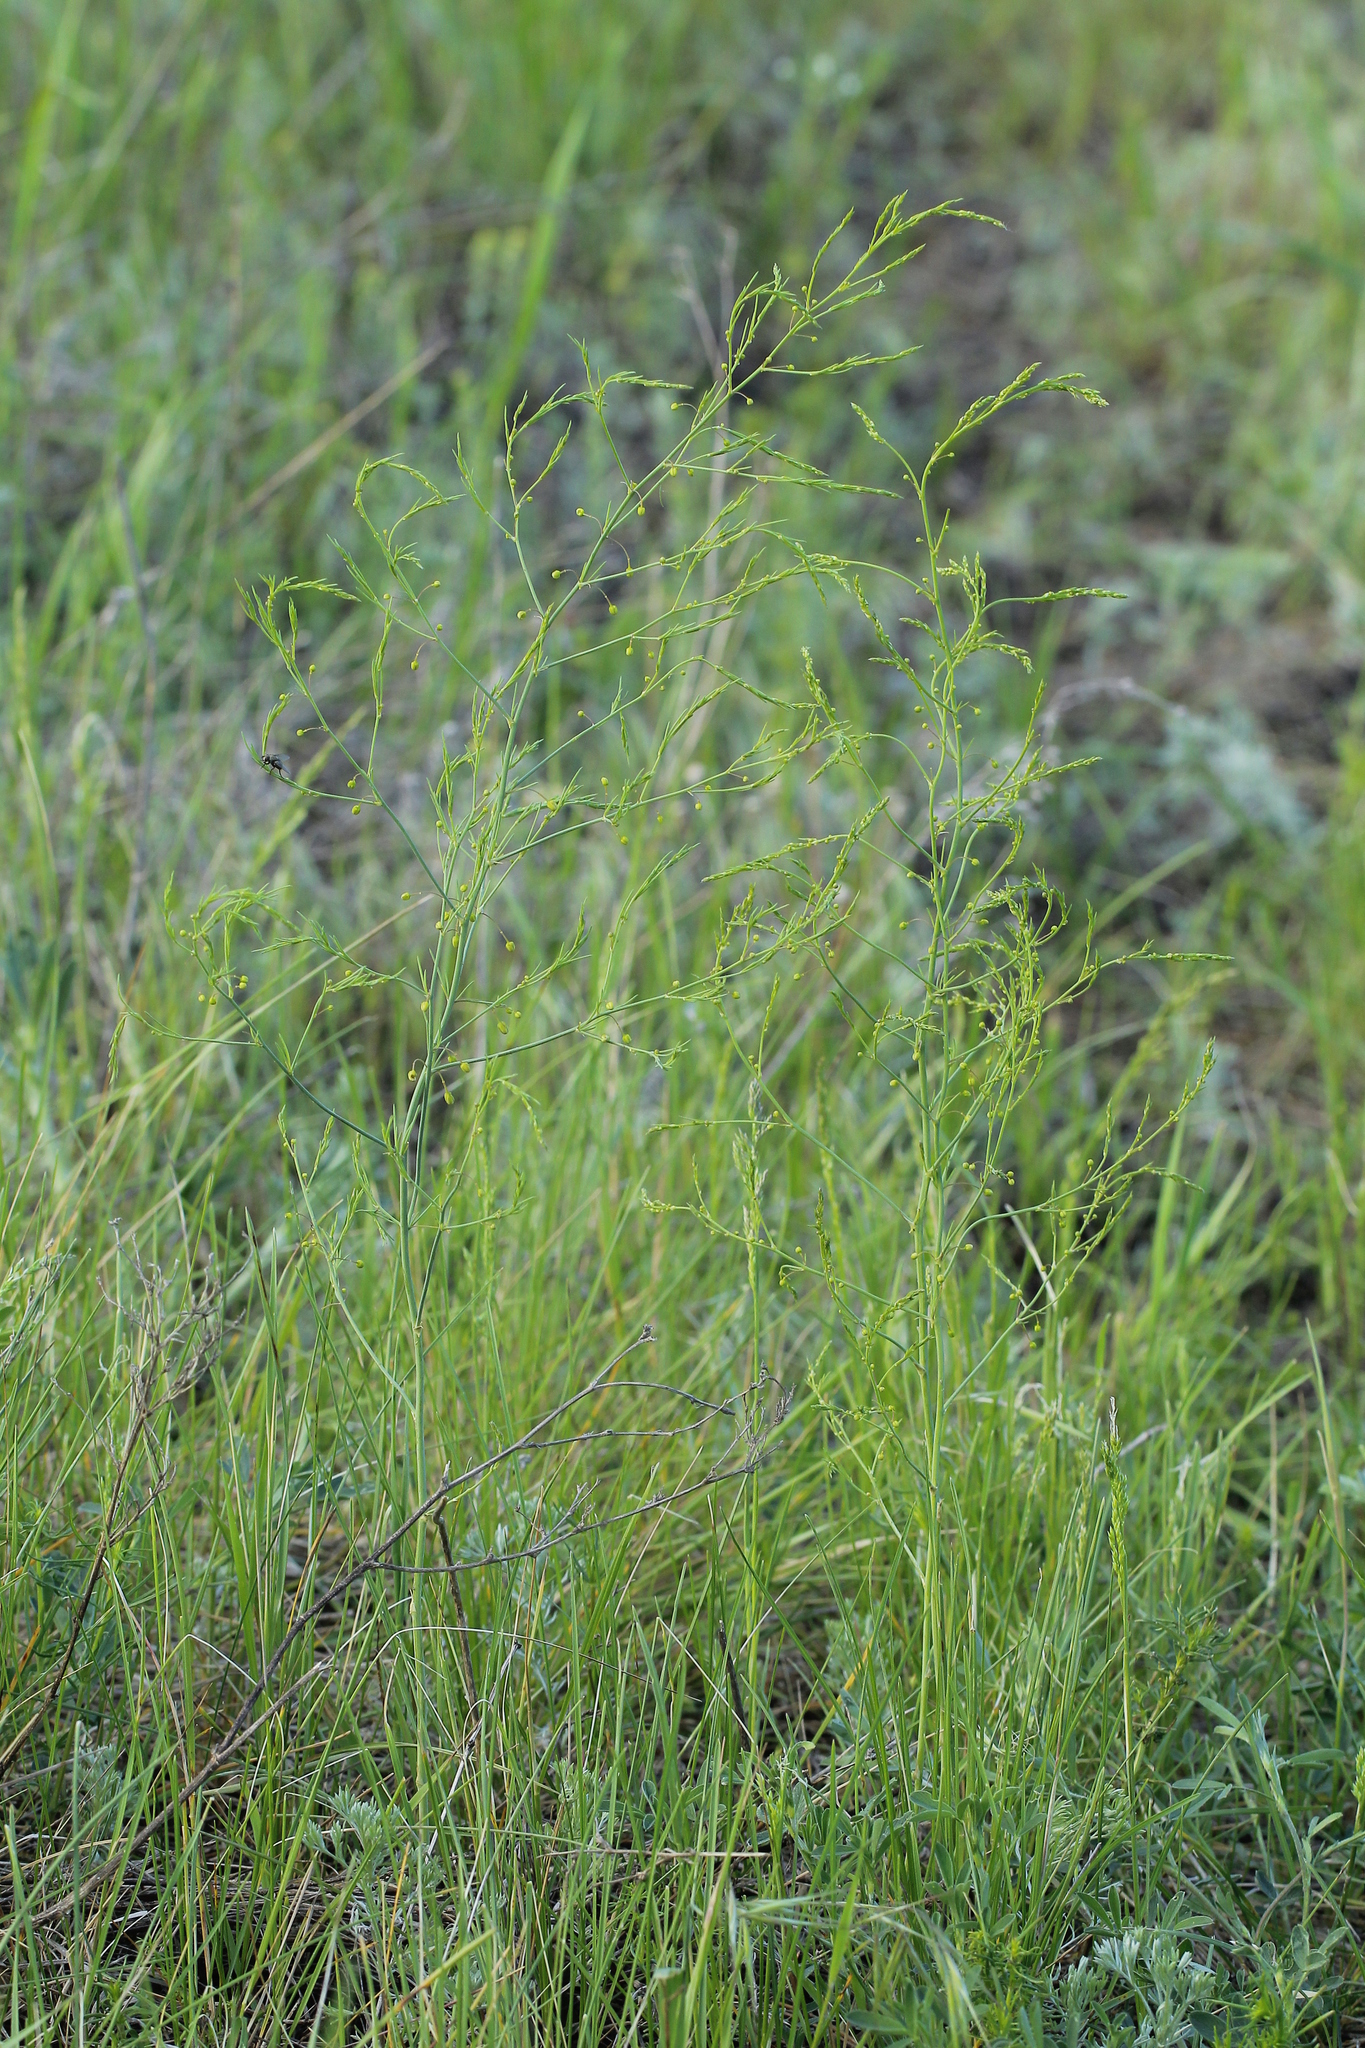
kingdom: Plantae
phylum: Tracheophyta
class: Liliopsida
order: Asparagales
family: Asparagaceae
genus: Asparagus
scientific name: Asparagus officinalis
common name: Garden asparagus
